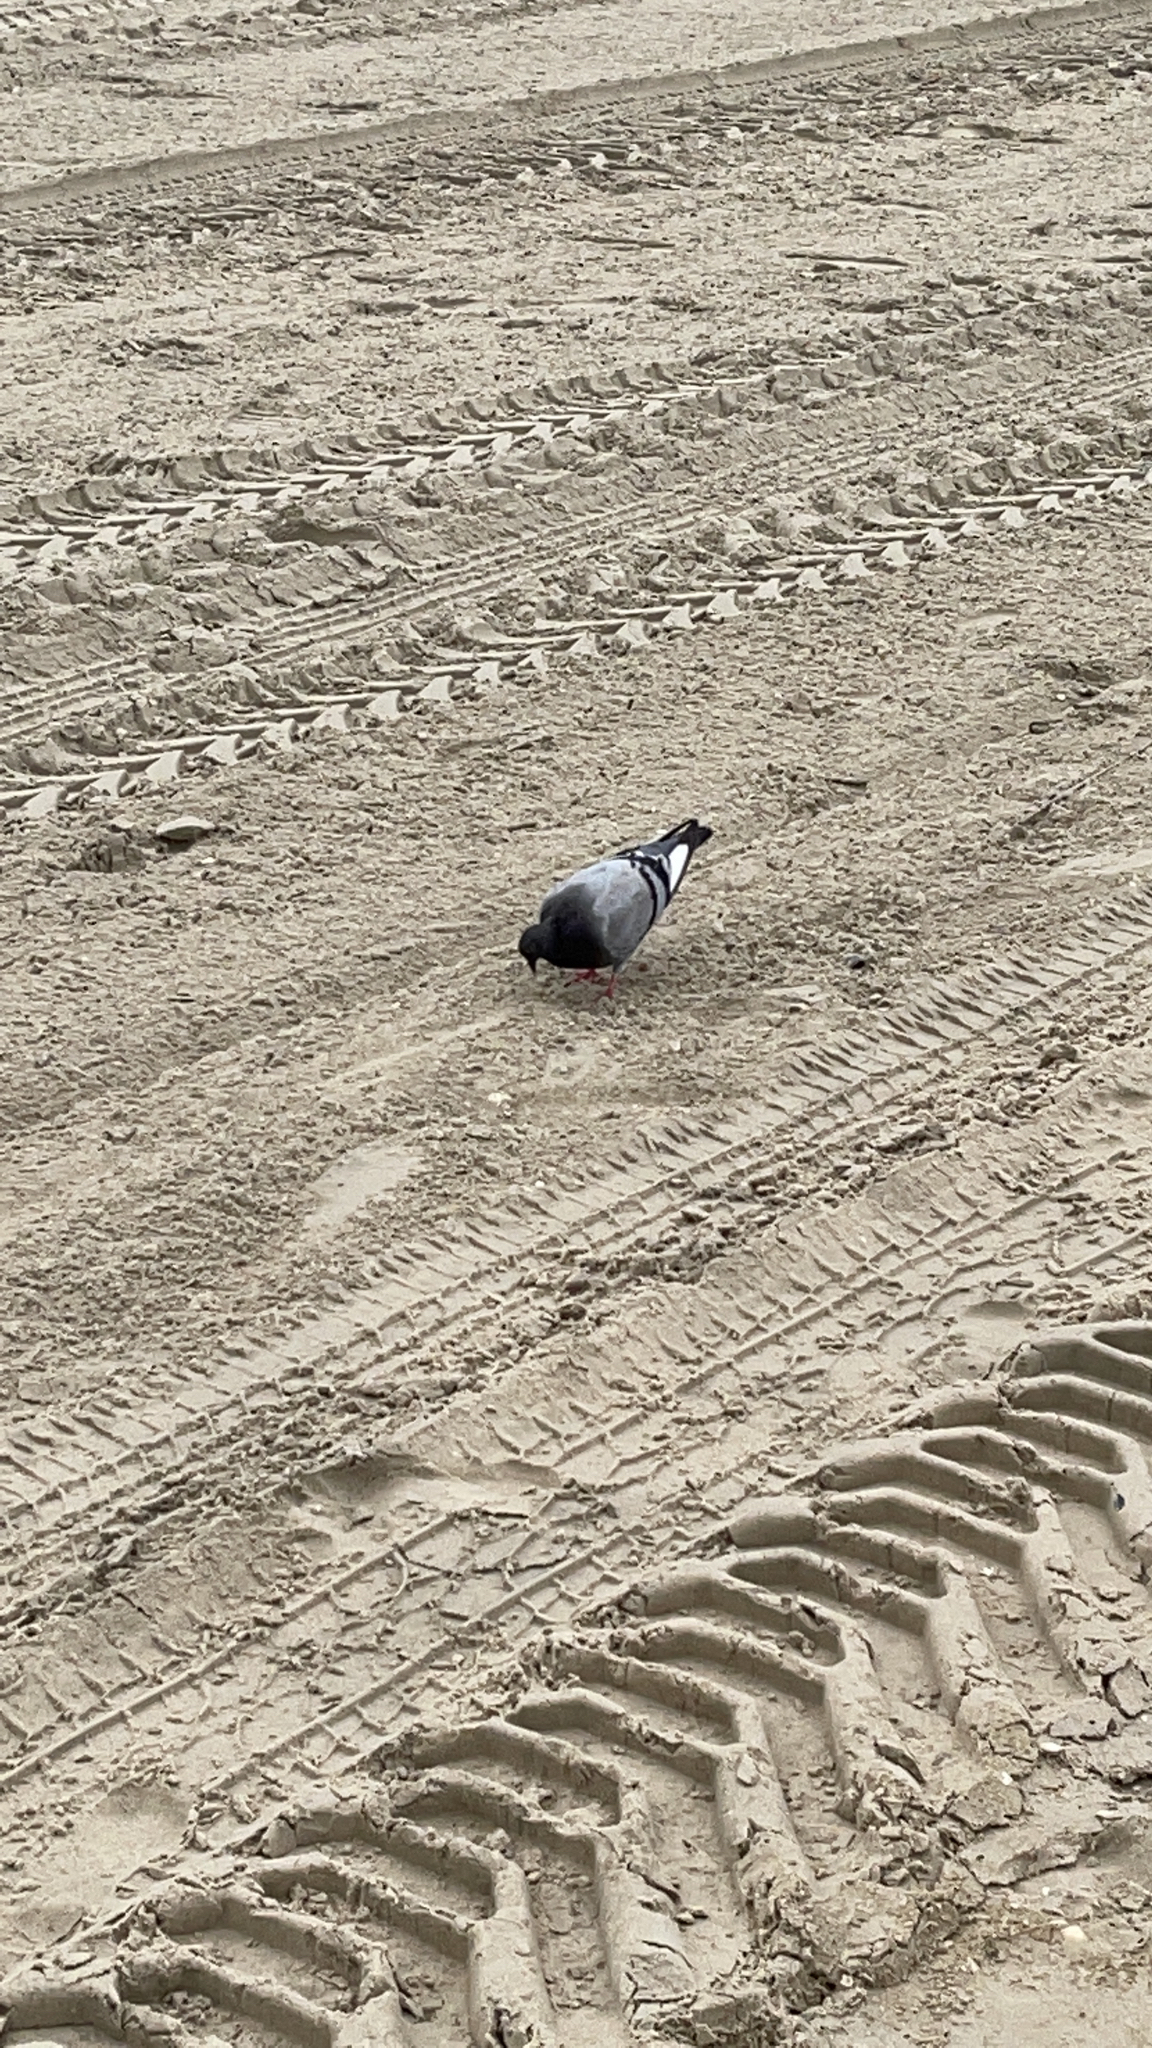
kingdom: Animalia
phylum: Chordata
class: Aves
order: Columbiformes
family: Columbidae
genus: Columba
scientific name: Columba livia
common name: Rock pigeon
